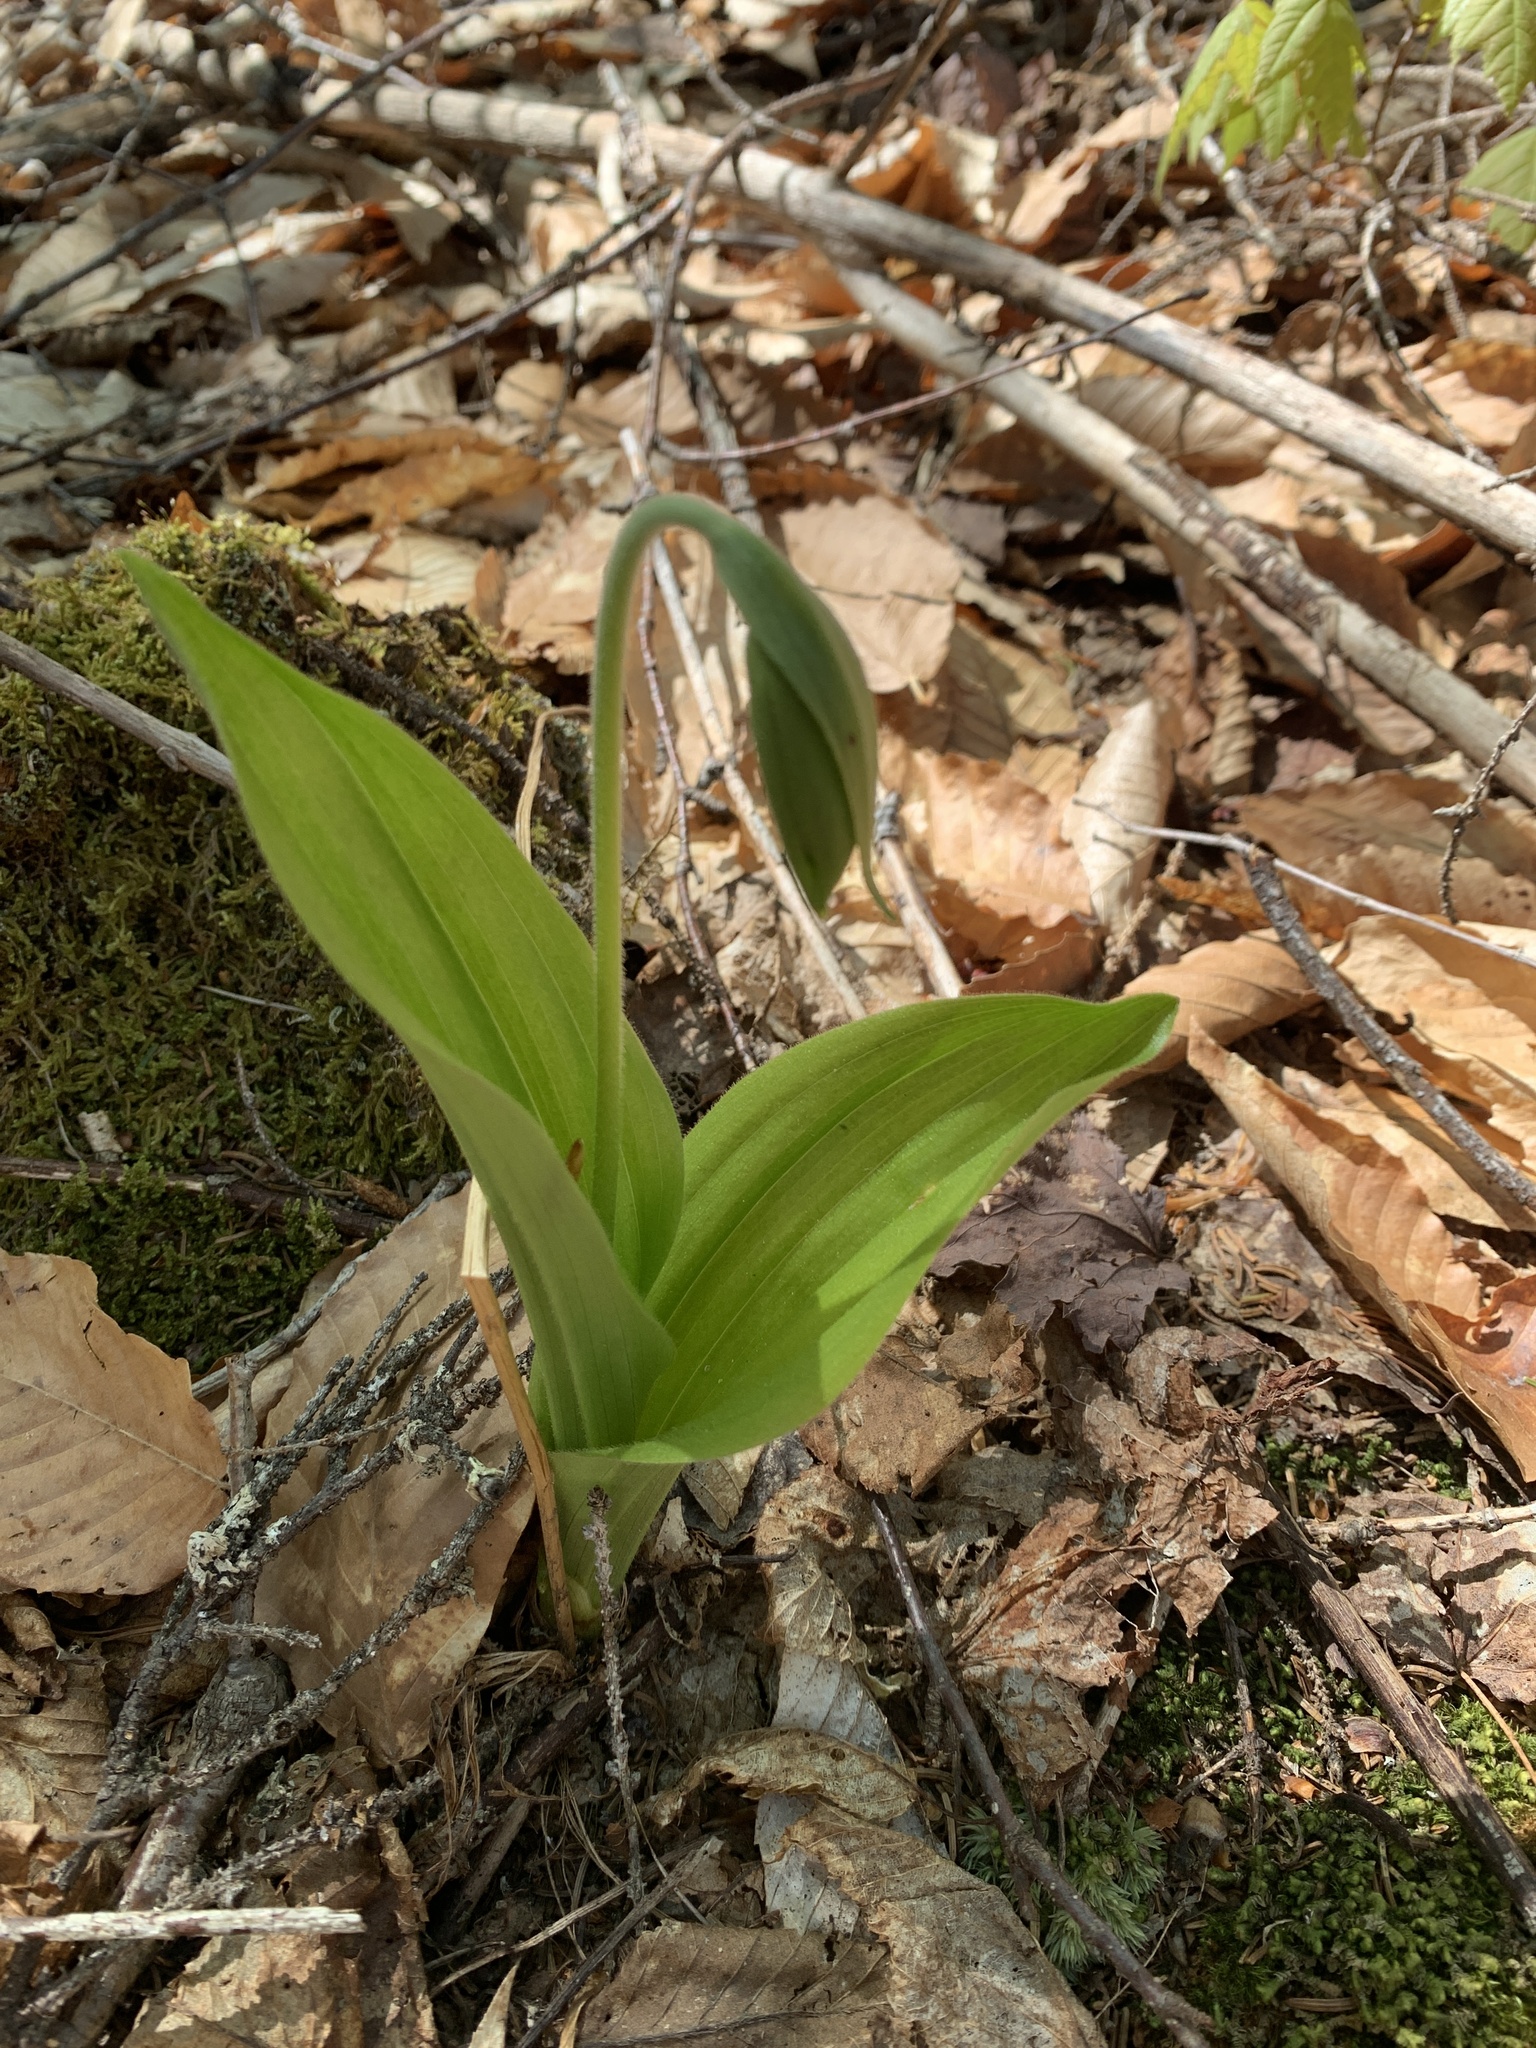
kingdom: Plantae
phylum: Tracheophyta
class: Liliopsida
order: Asparagales
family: Orchidaceae
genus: Cypripedium
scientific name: Cypripedium acaule
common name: Pink lady's-slipper
